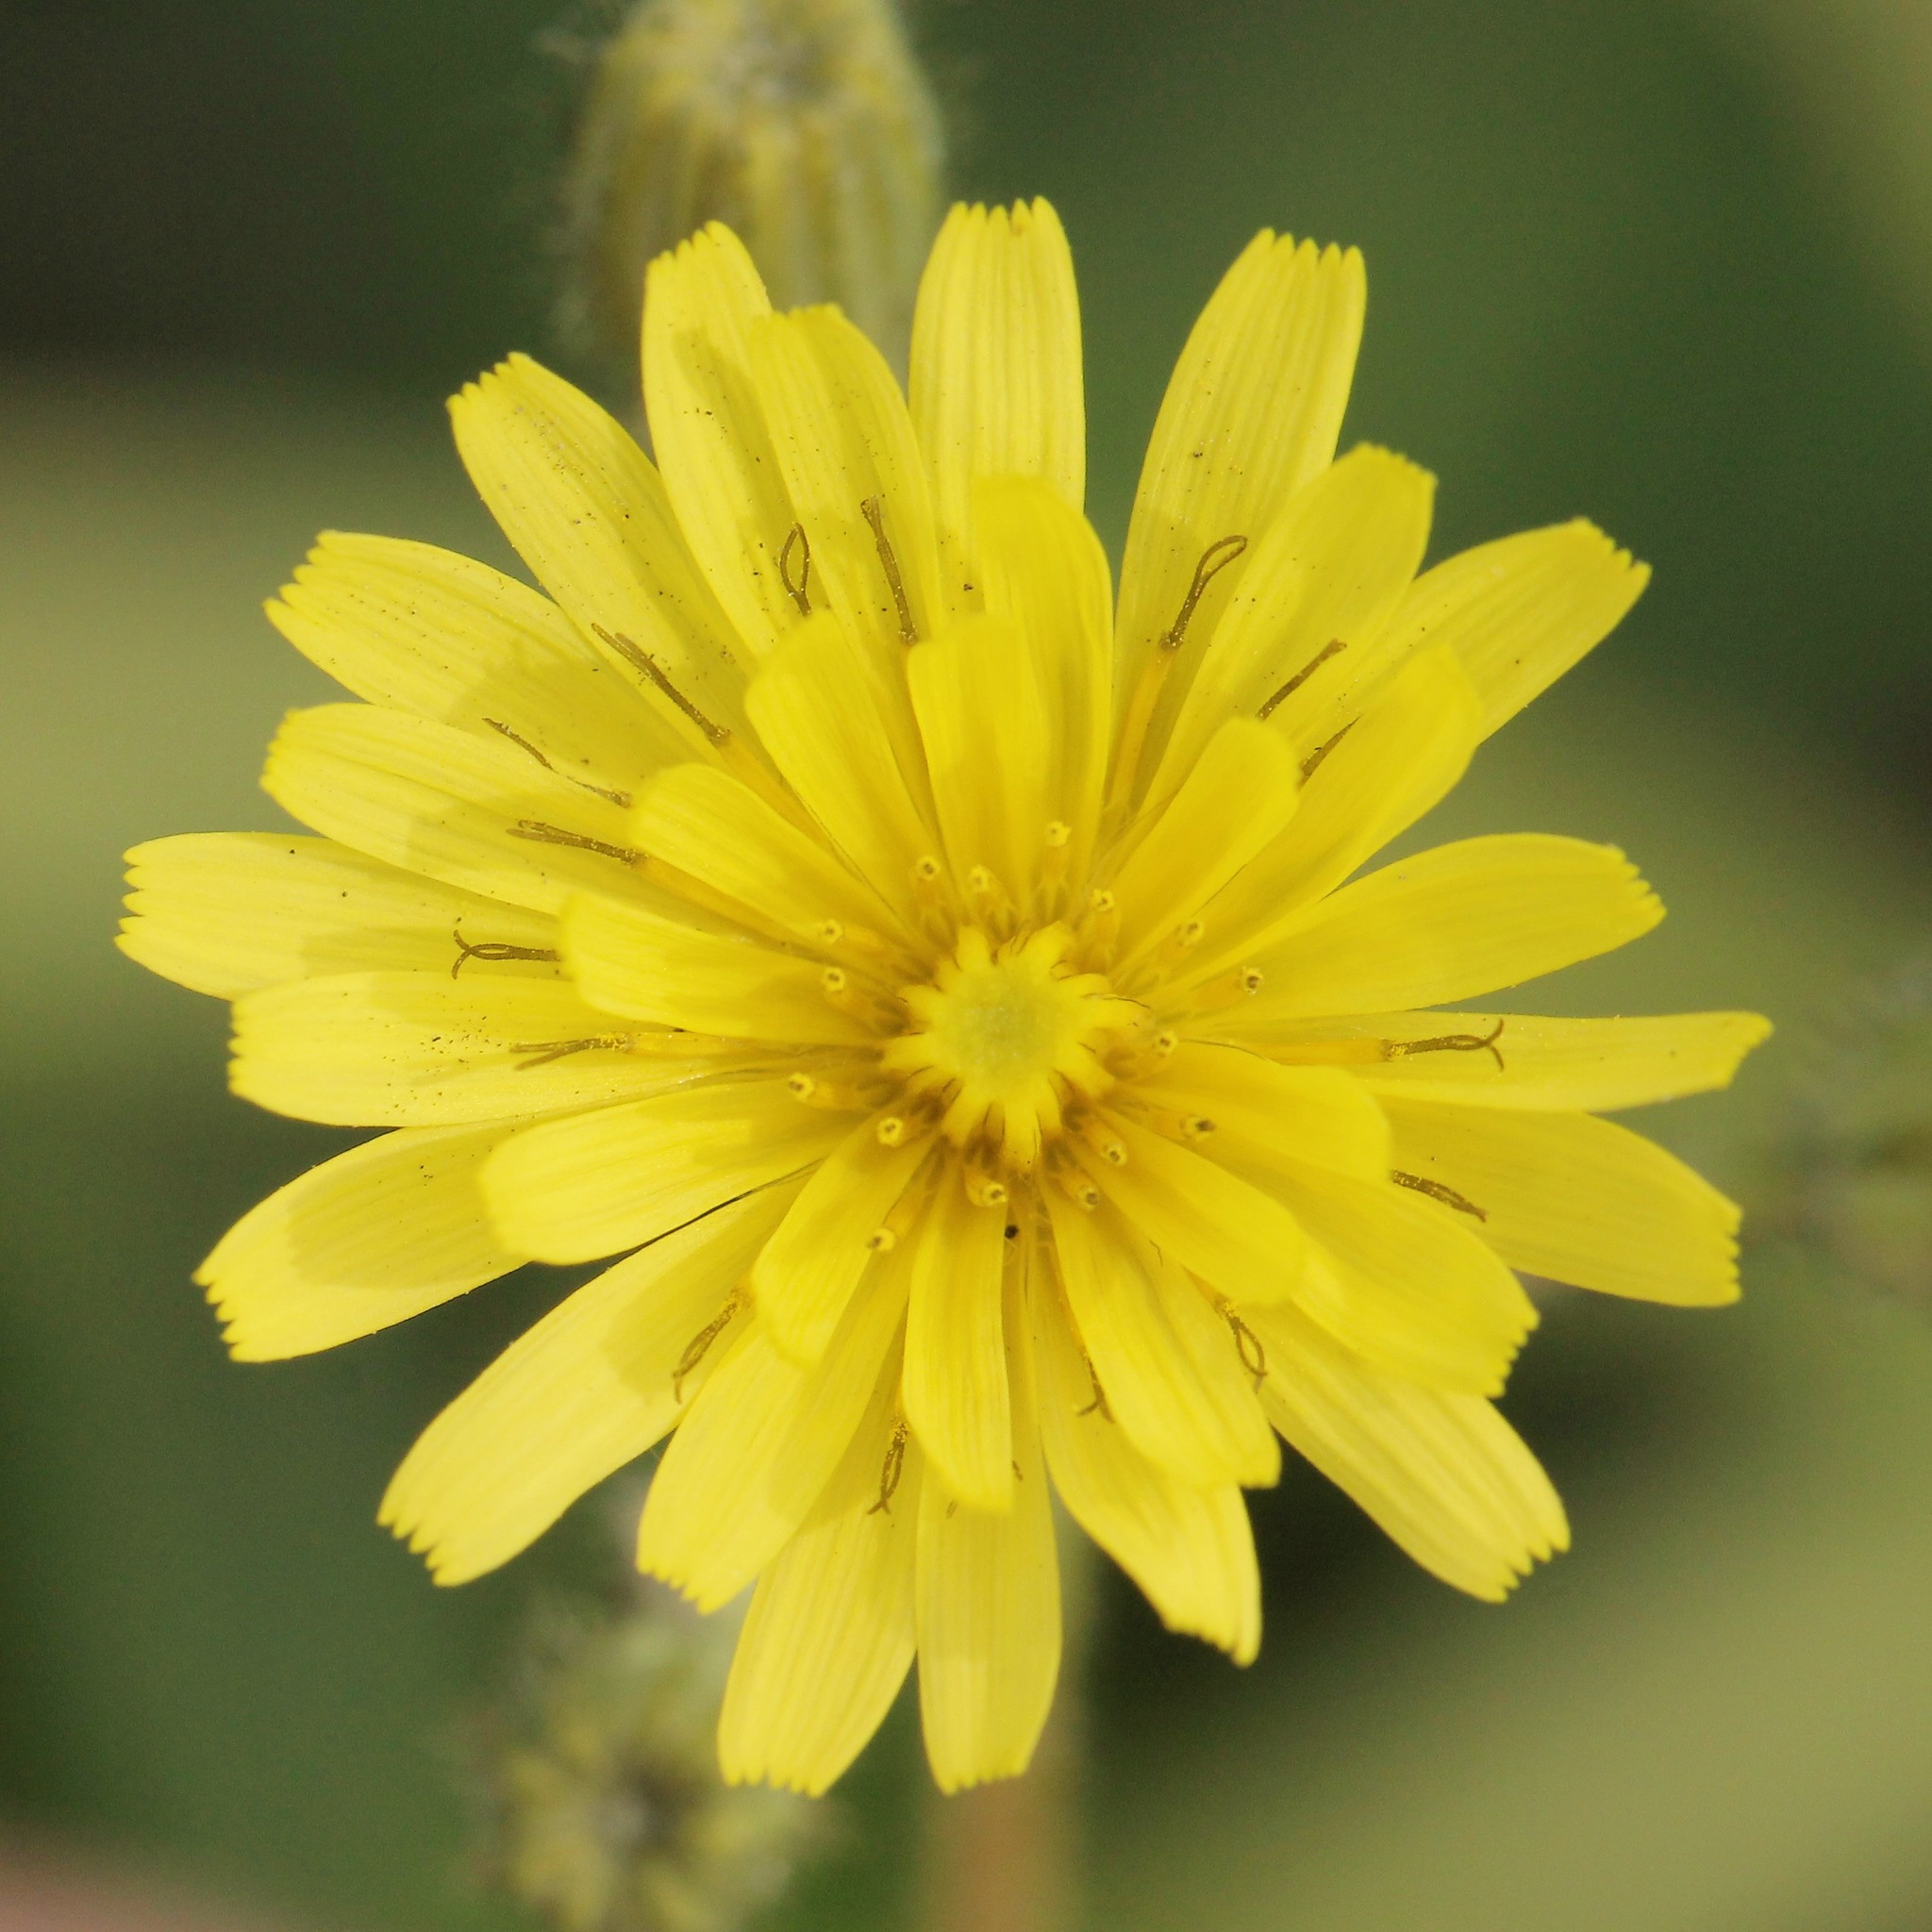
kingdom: Plantae
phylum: Tracheophyta
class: Magnoliopsida
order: Asterales
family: Asteraceae
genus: Crepis
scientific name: Crepis sancta
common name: Hawk's-beard
